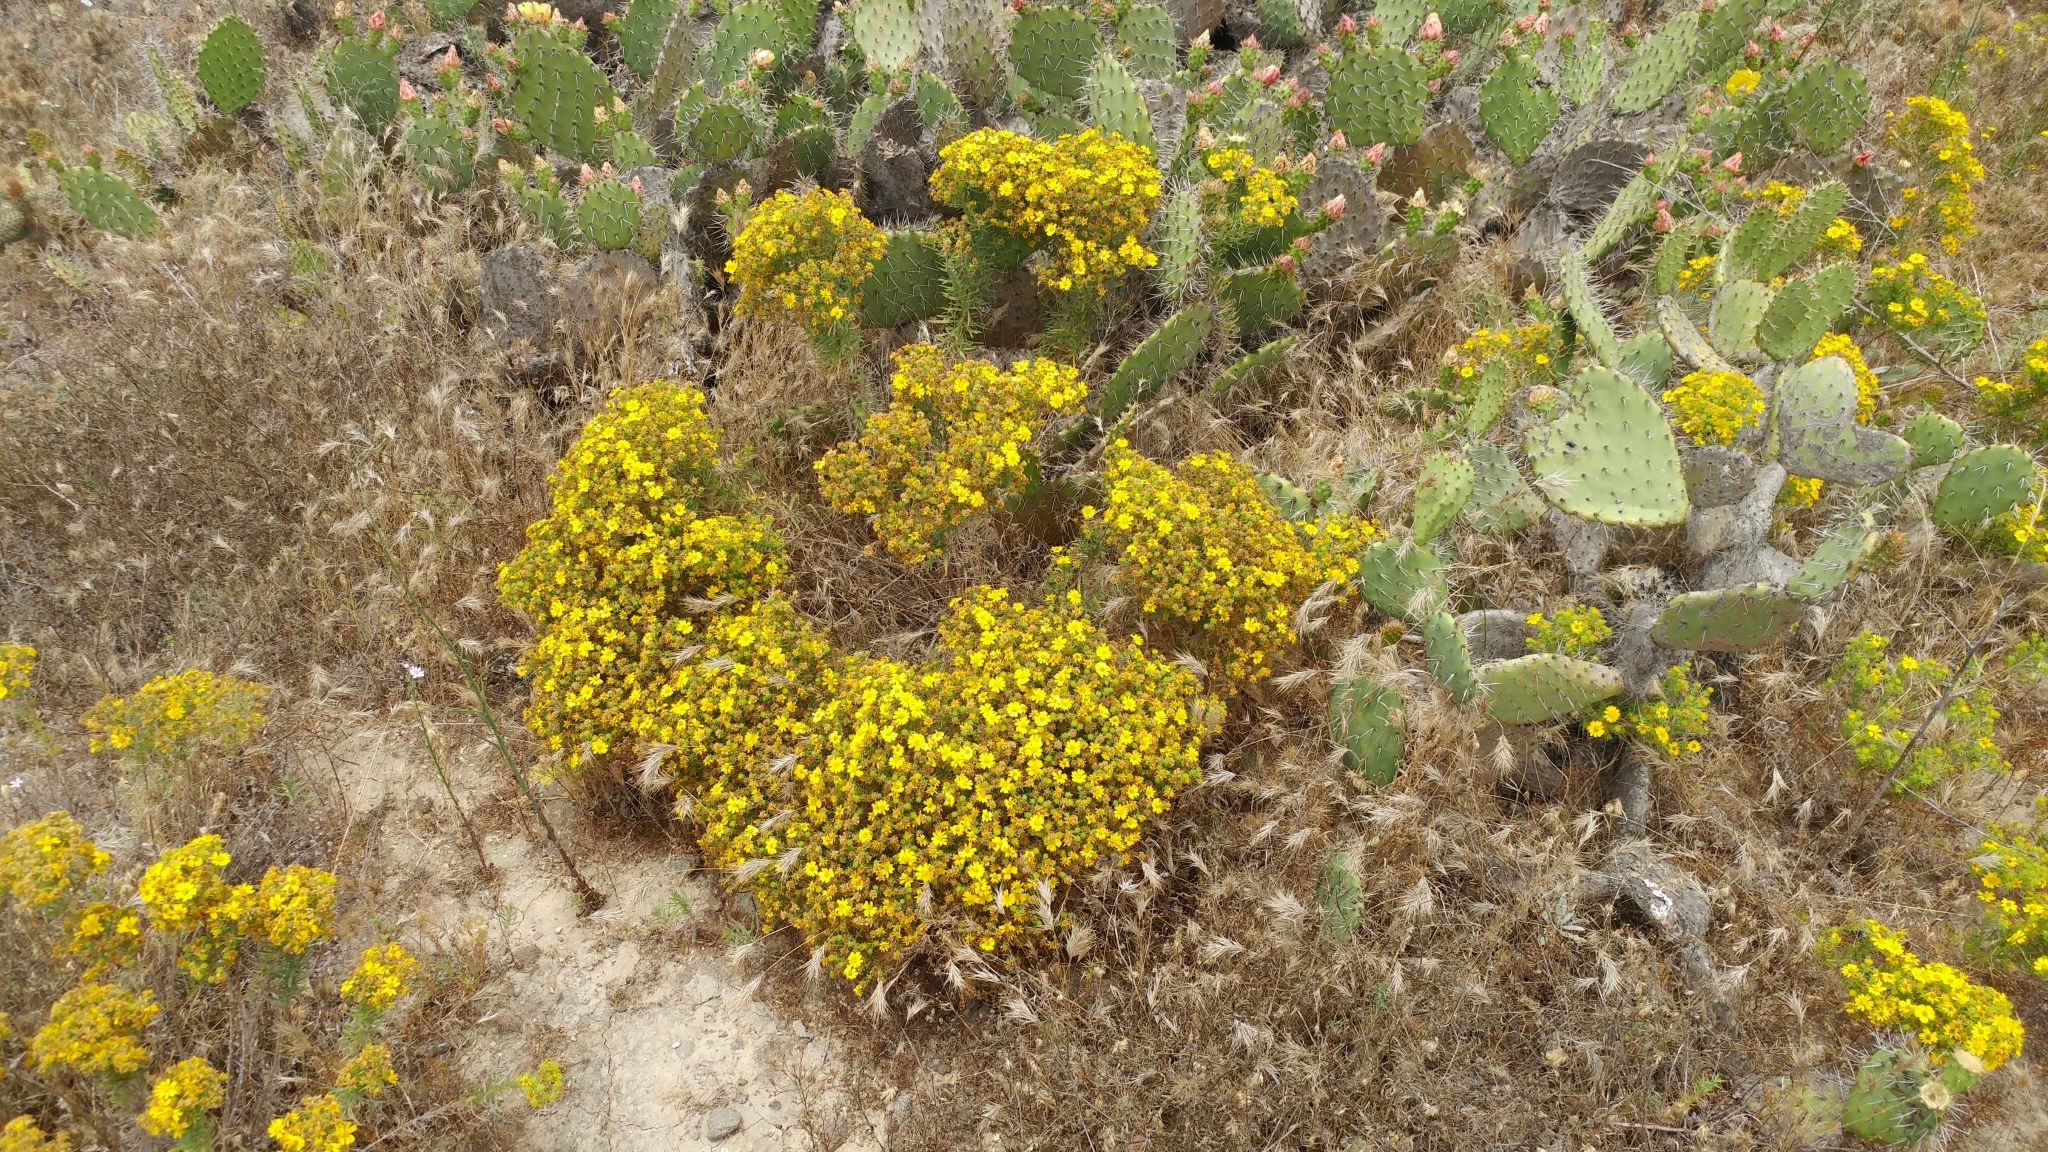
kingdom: Plantae
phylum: Tracheophyta
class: Magnoliopsida
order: Asterales
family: Asteraceae
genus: Deinandra
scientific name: Deinandra clementina
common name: Island tarplant
